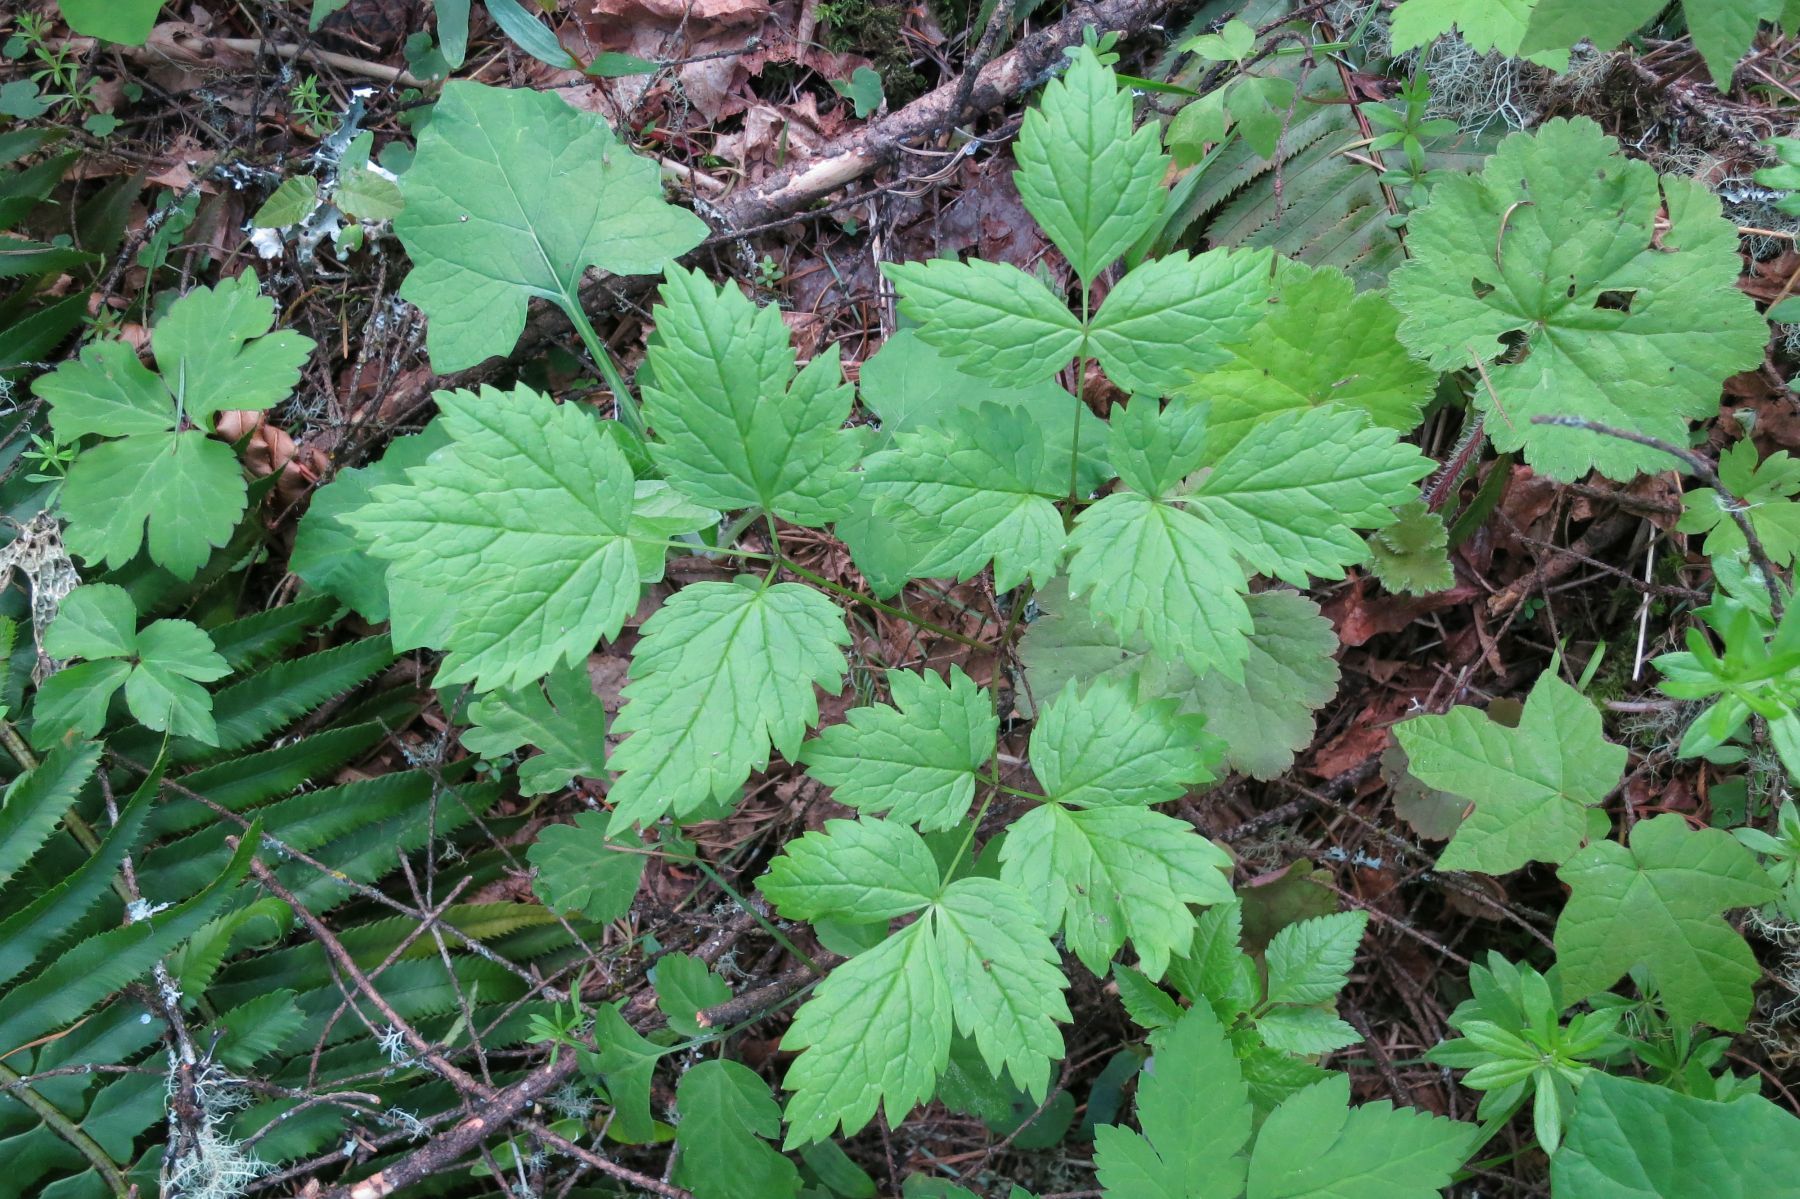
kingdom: Plantae
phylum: Tracheophyta
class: Magnoliopsida
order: Ranunculales
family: Ranunculaceae
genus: Actaea
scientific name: Actaea rubra
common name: Red baneberry
